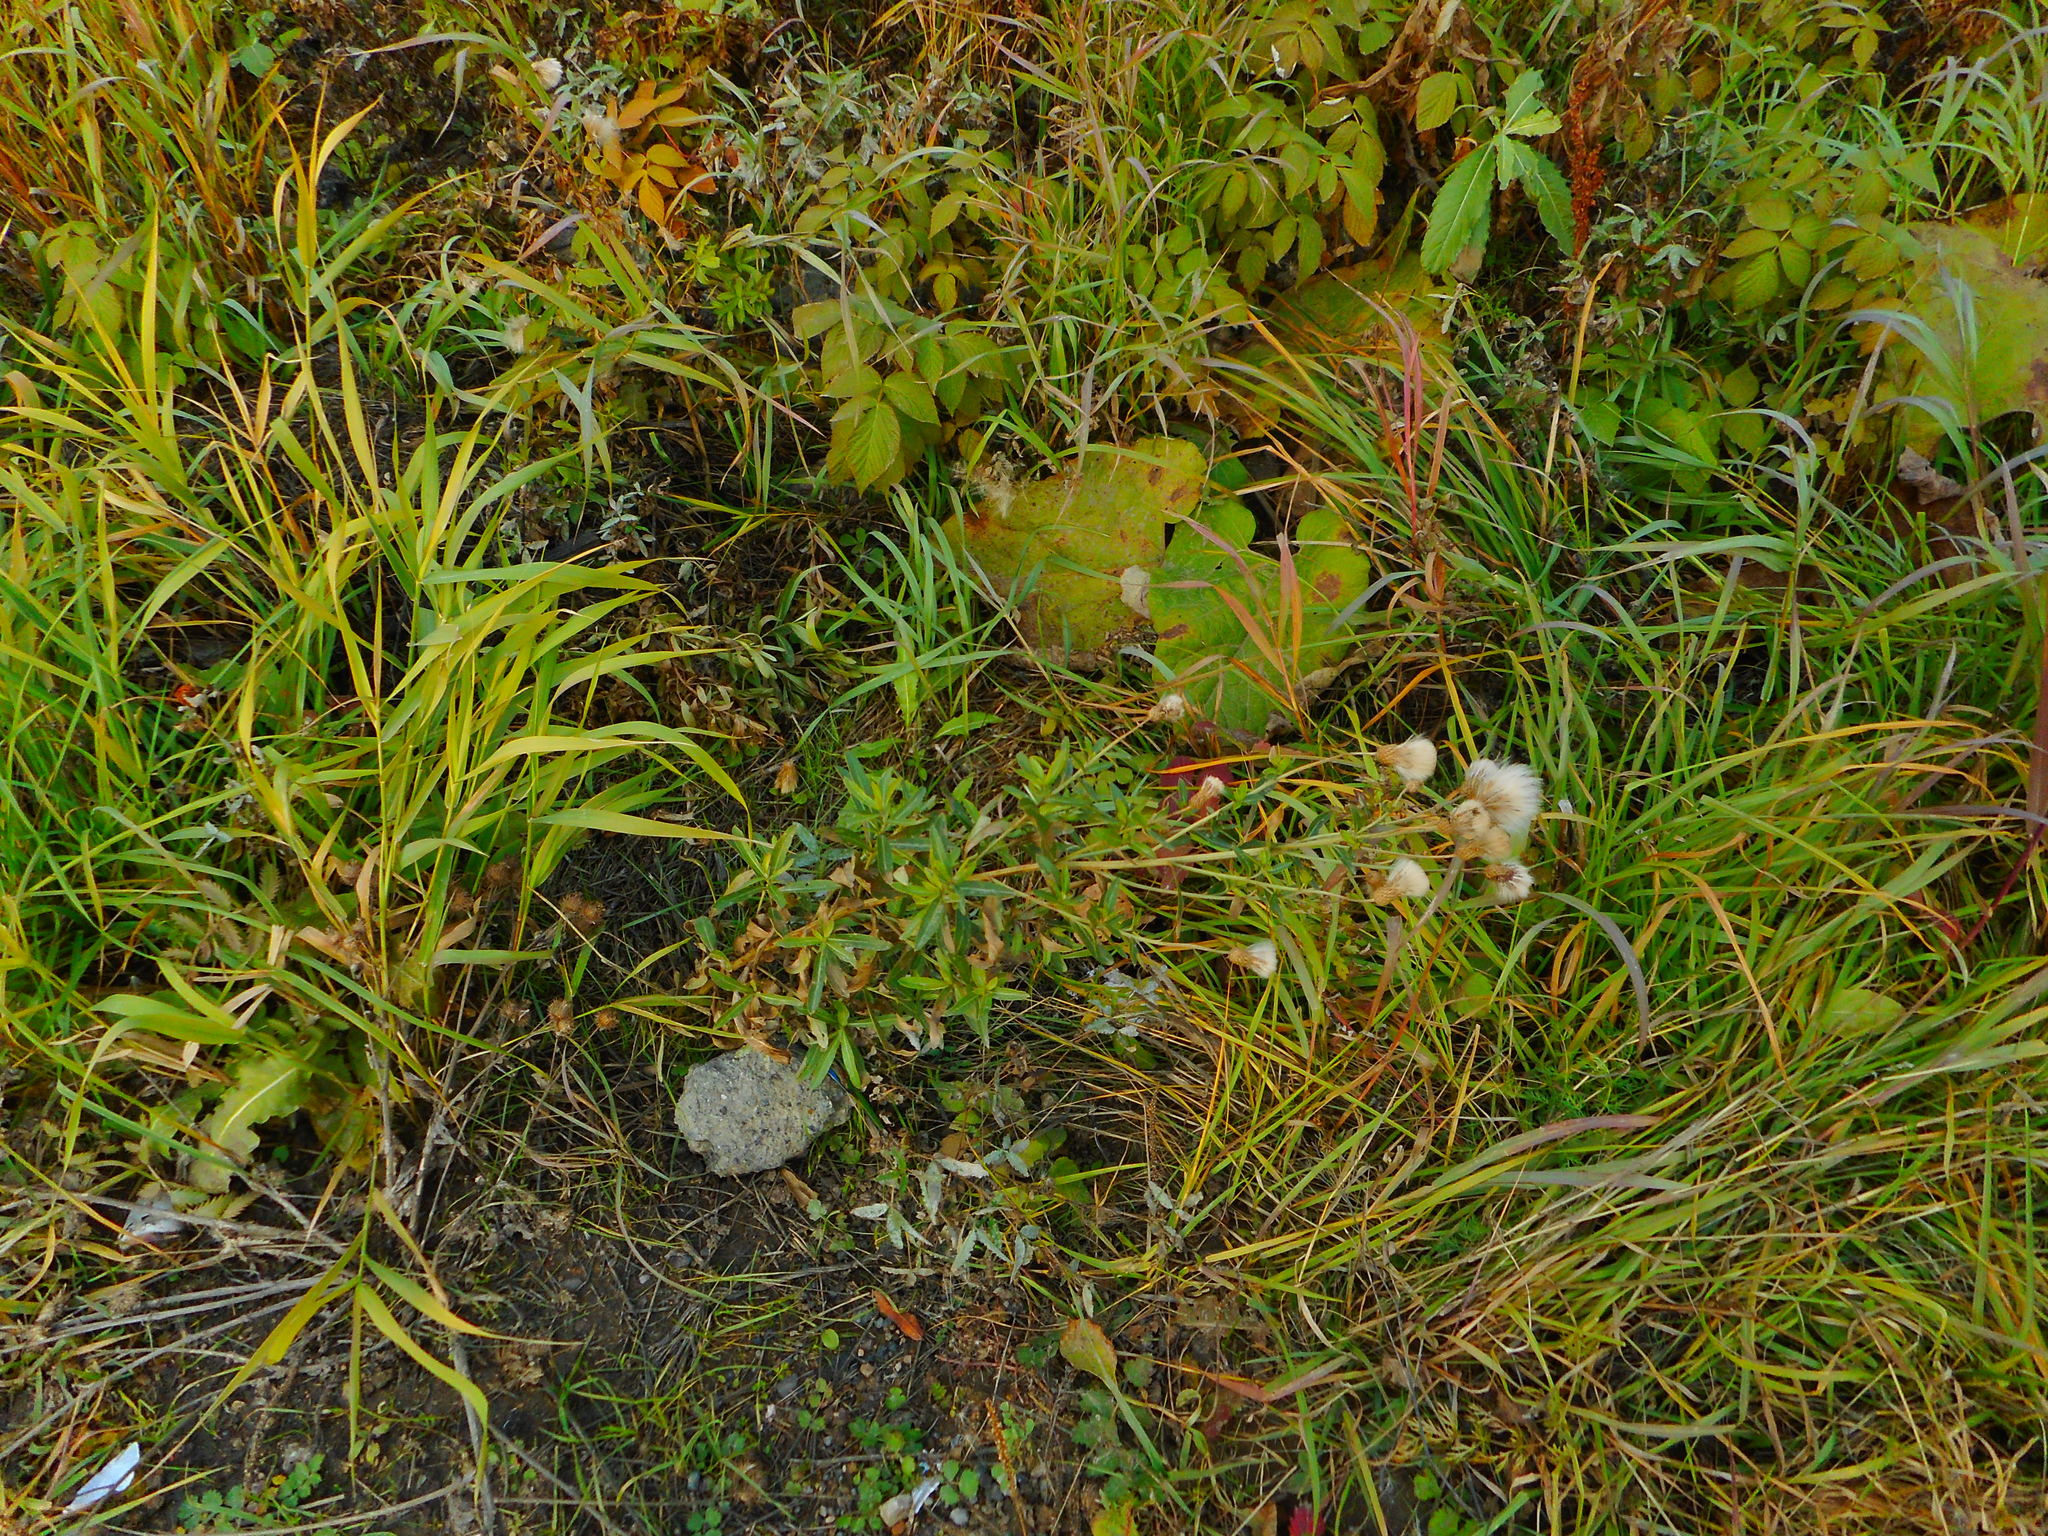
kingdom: Plantae
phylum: Tracheophyta
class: Magnoliopsida
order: Asterales
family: Asteraceae
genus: Cirsium
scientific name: Cirsium arvense
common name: Creeping thistle
